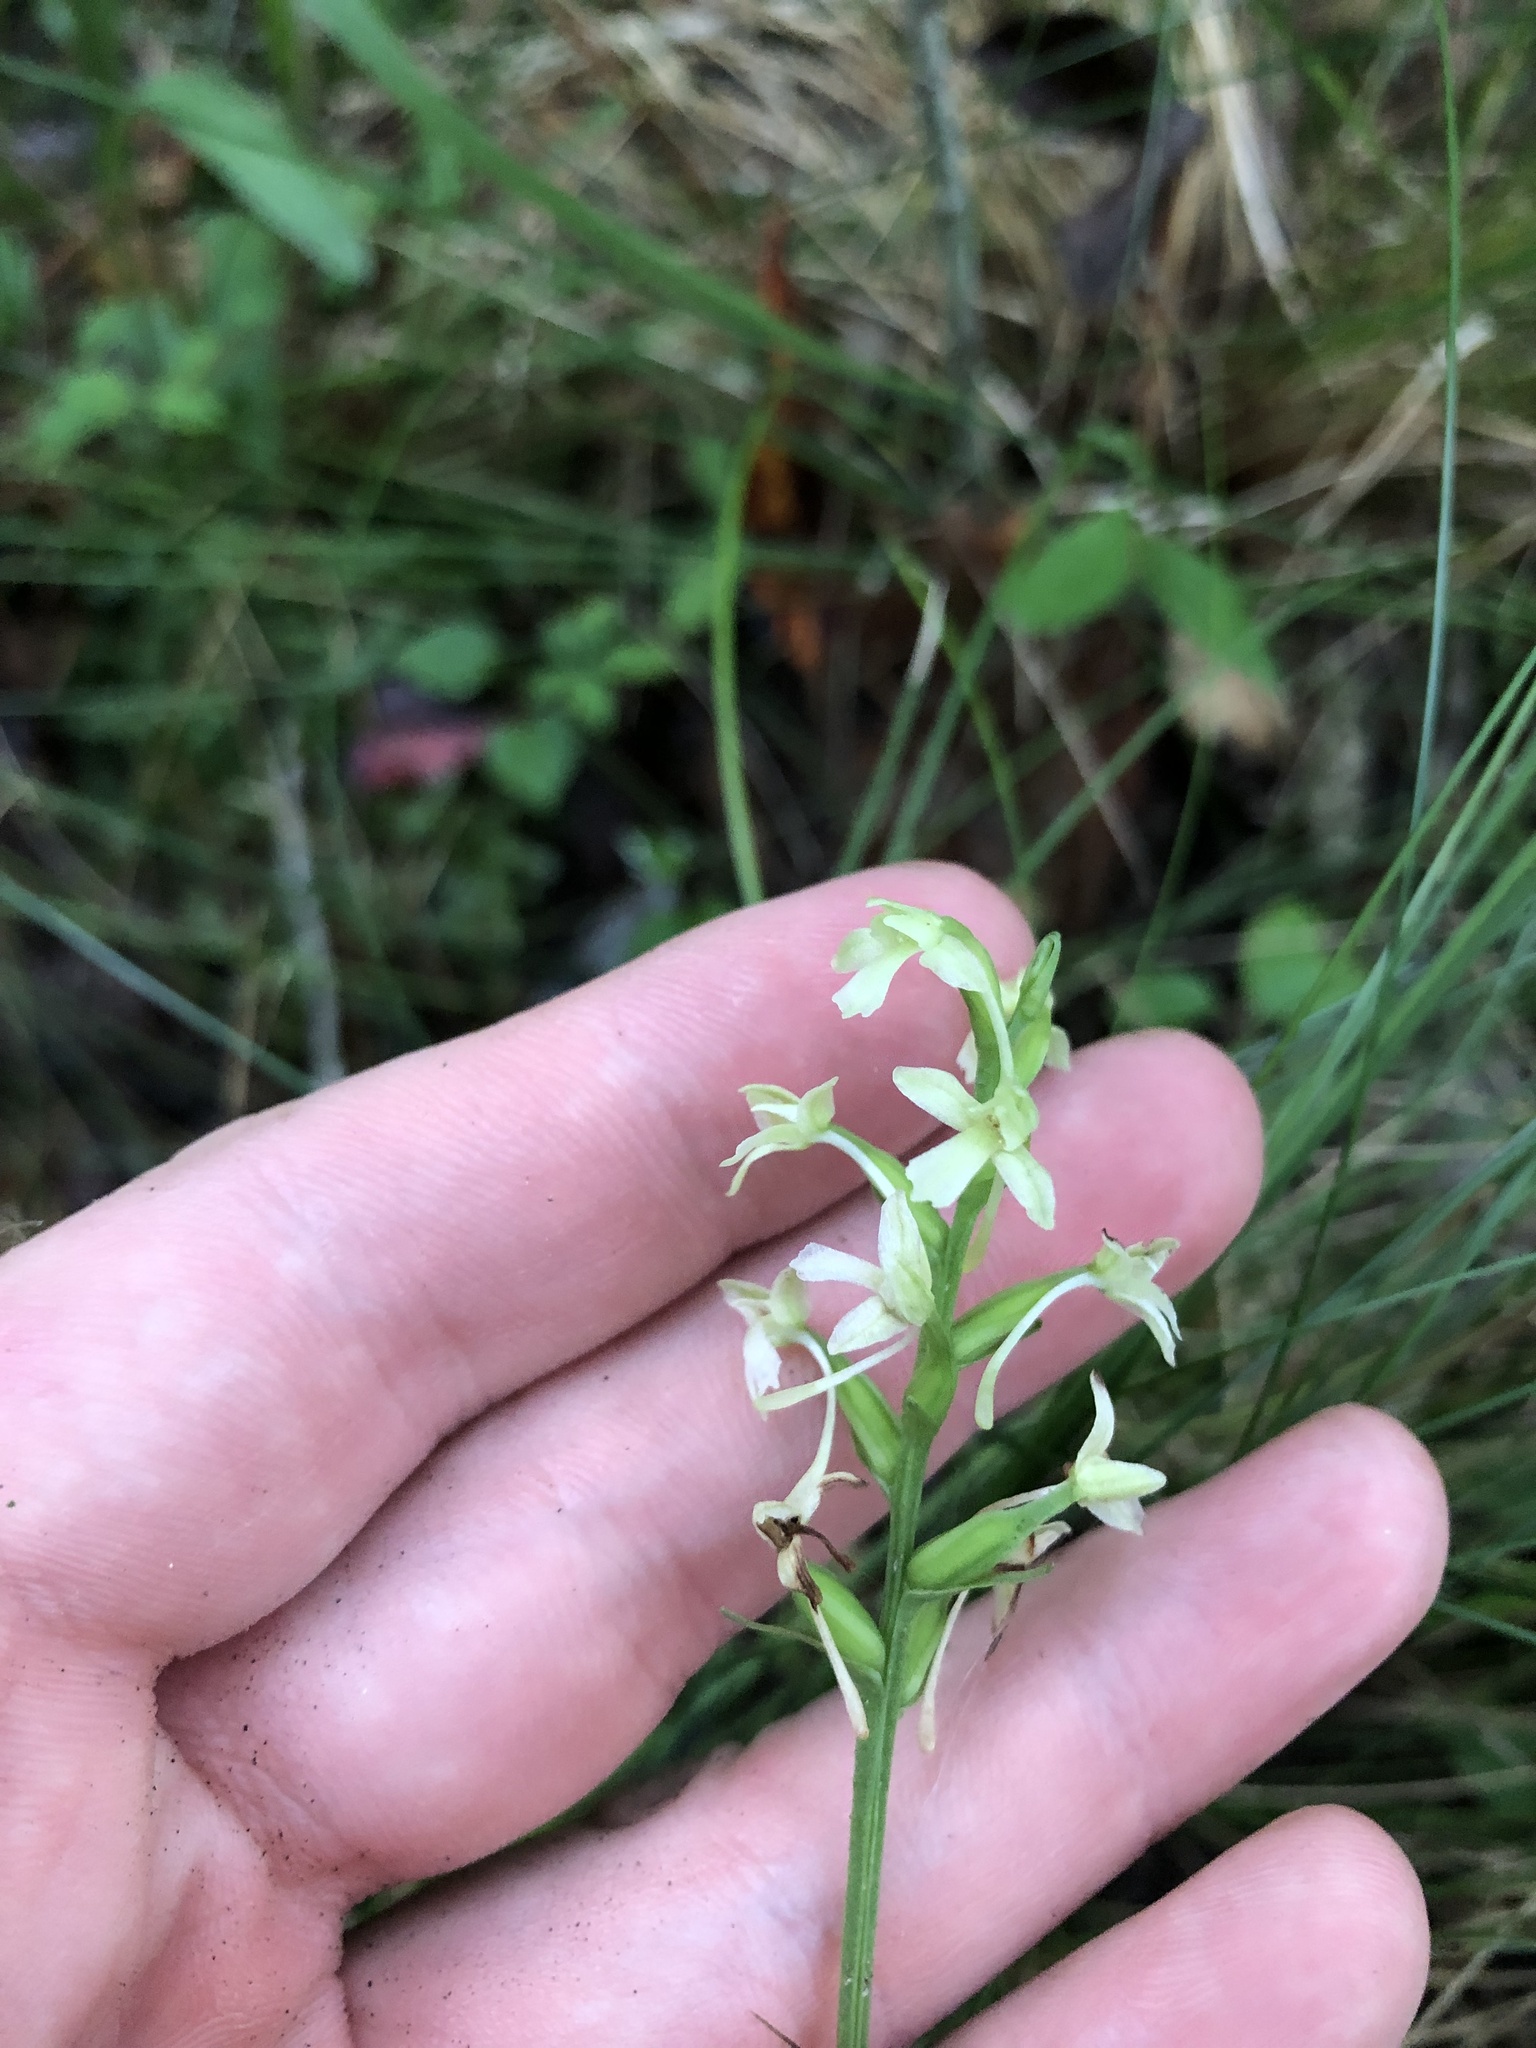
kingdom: Plantae
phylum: Tracheophyta
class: Liliopsida
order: Asparagales
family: Orchidaceae
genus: Platanthera
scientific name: Platanthera clavellata
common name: Club-spur orchid
